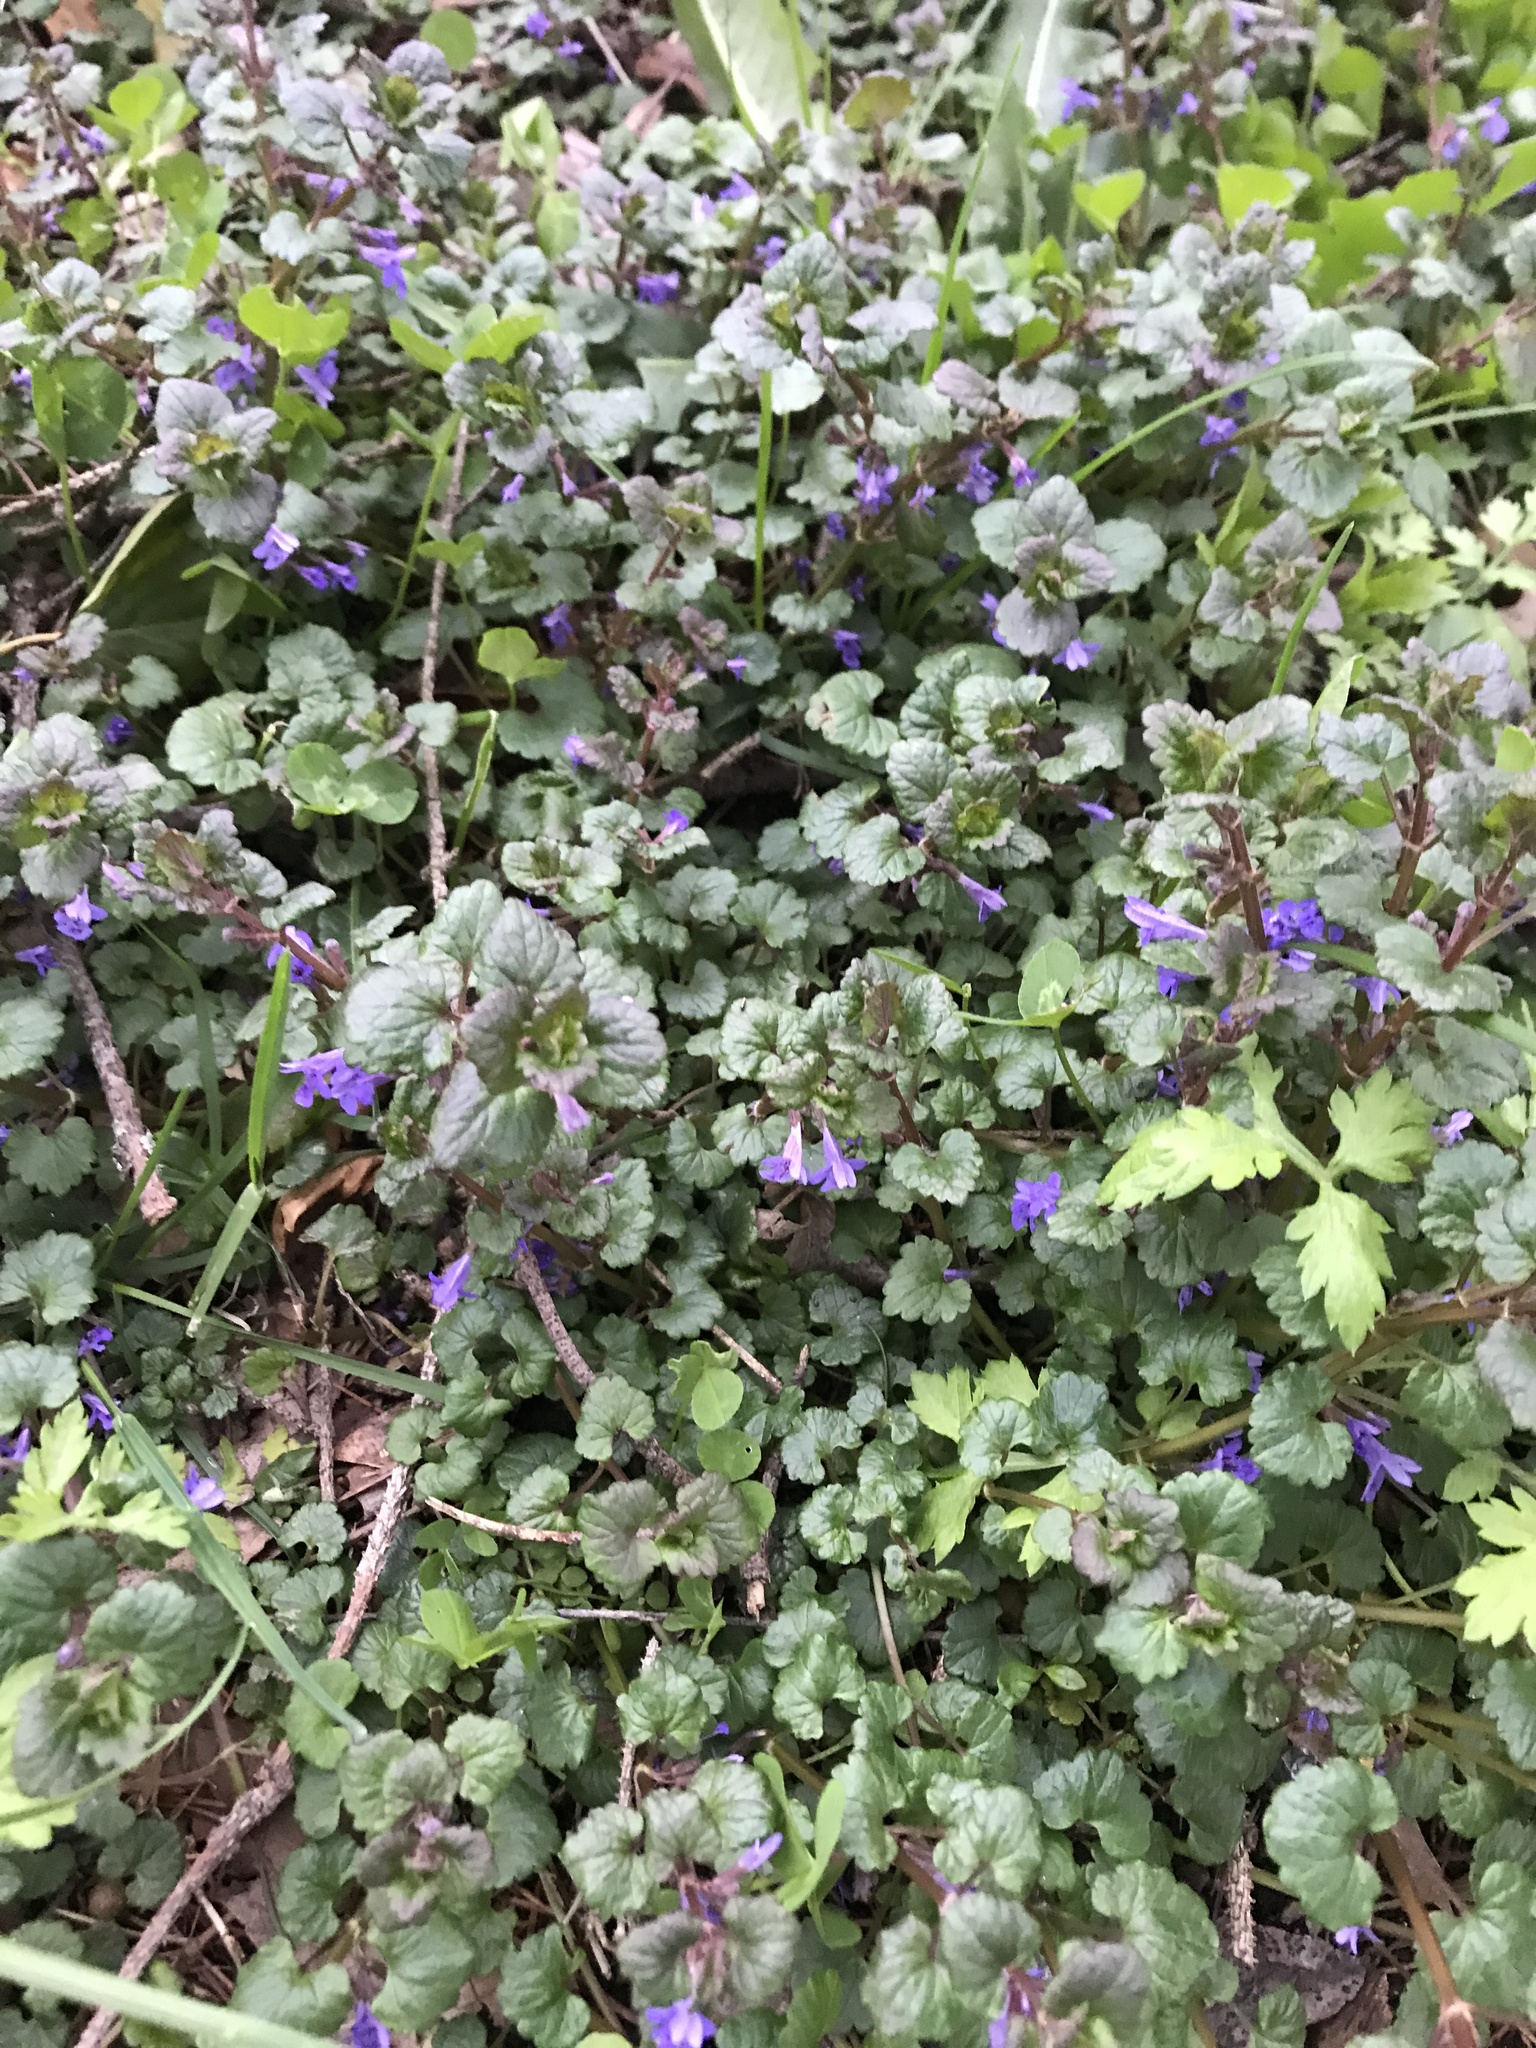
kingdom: Plantae
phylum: Tracheophyta
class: Magnoliopsida
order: Lamiales
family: Lamiaceae
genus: Glechoma
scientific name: Glechoma hederacea
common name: Ground ivy
